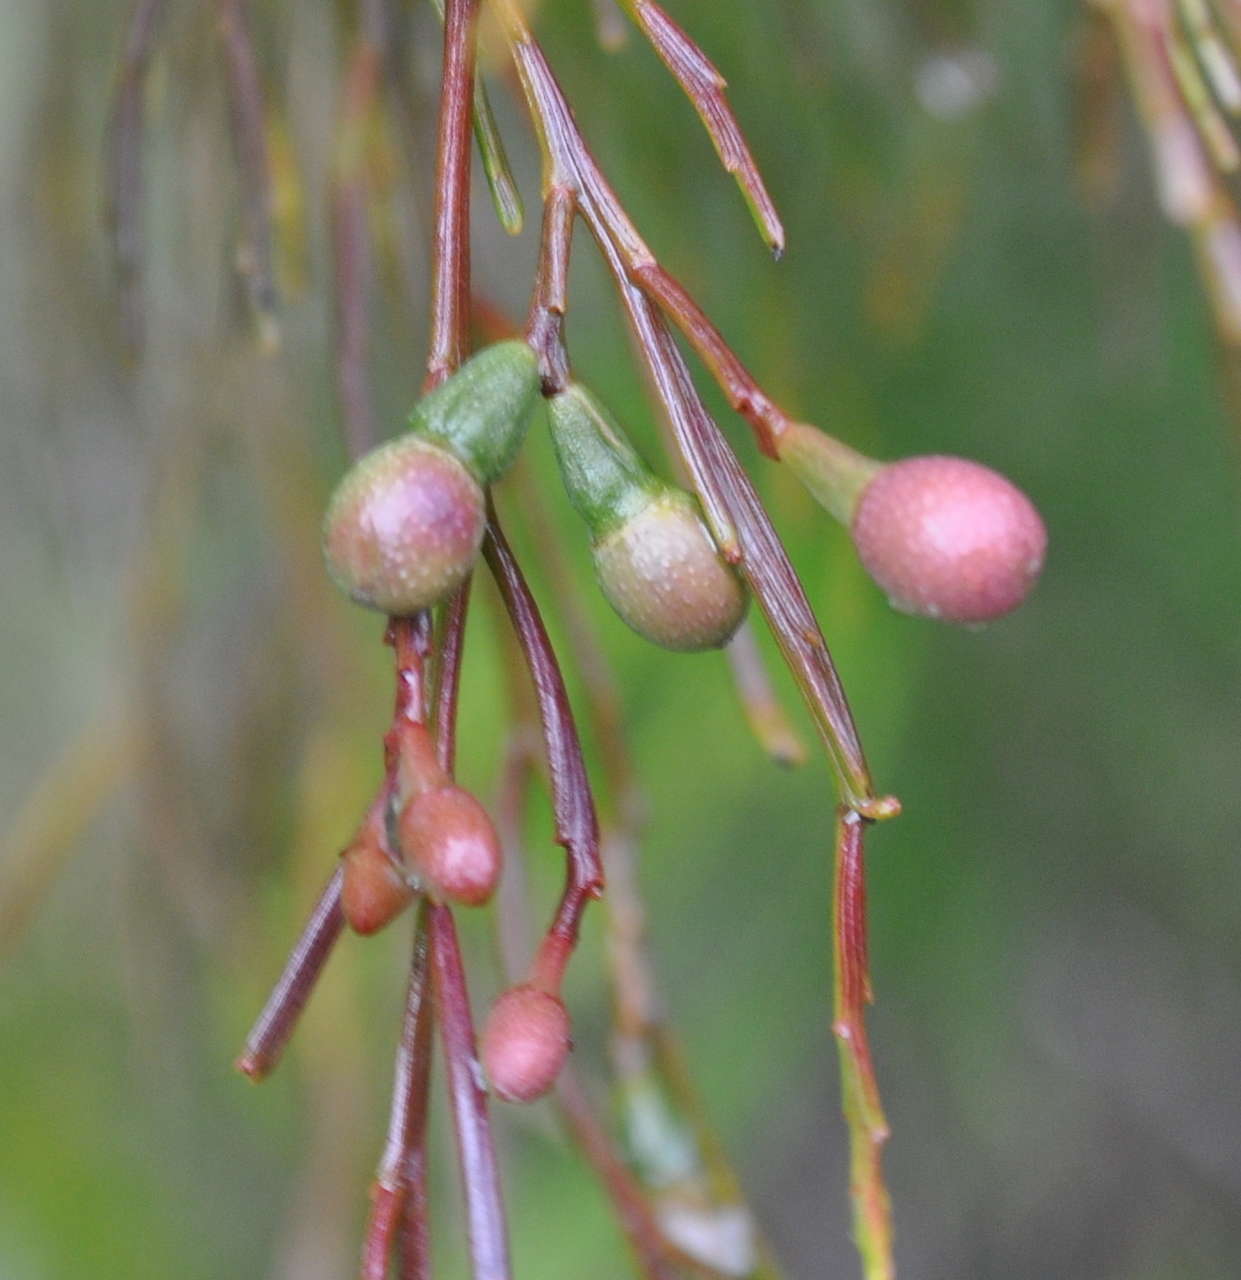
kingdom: Plantae
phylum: Tracheophyta
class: Magnoliopsida
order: Santalales
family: Santalaceae
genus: Exocarpos
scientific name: Exocarpos cupressiformis
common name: Cherry ballart
